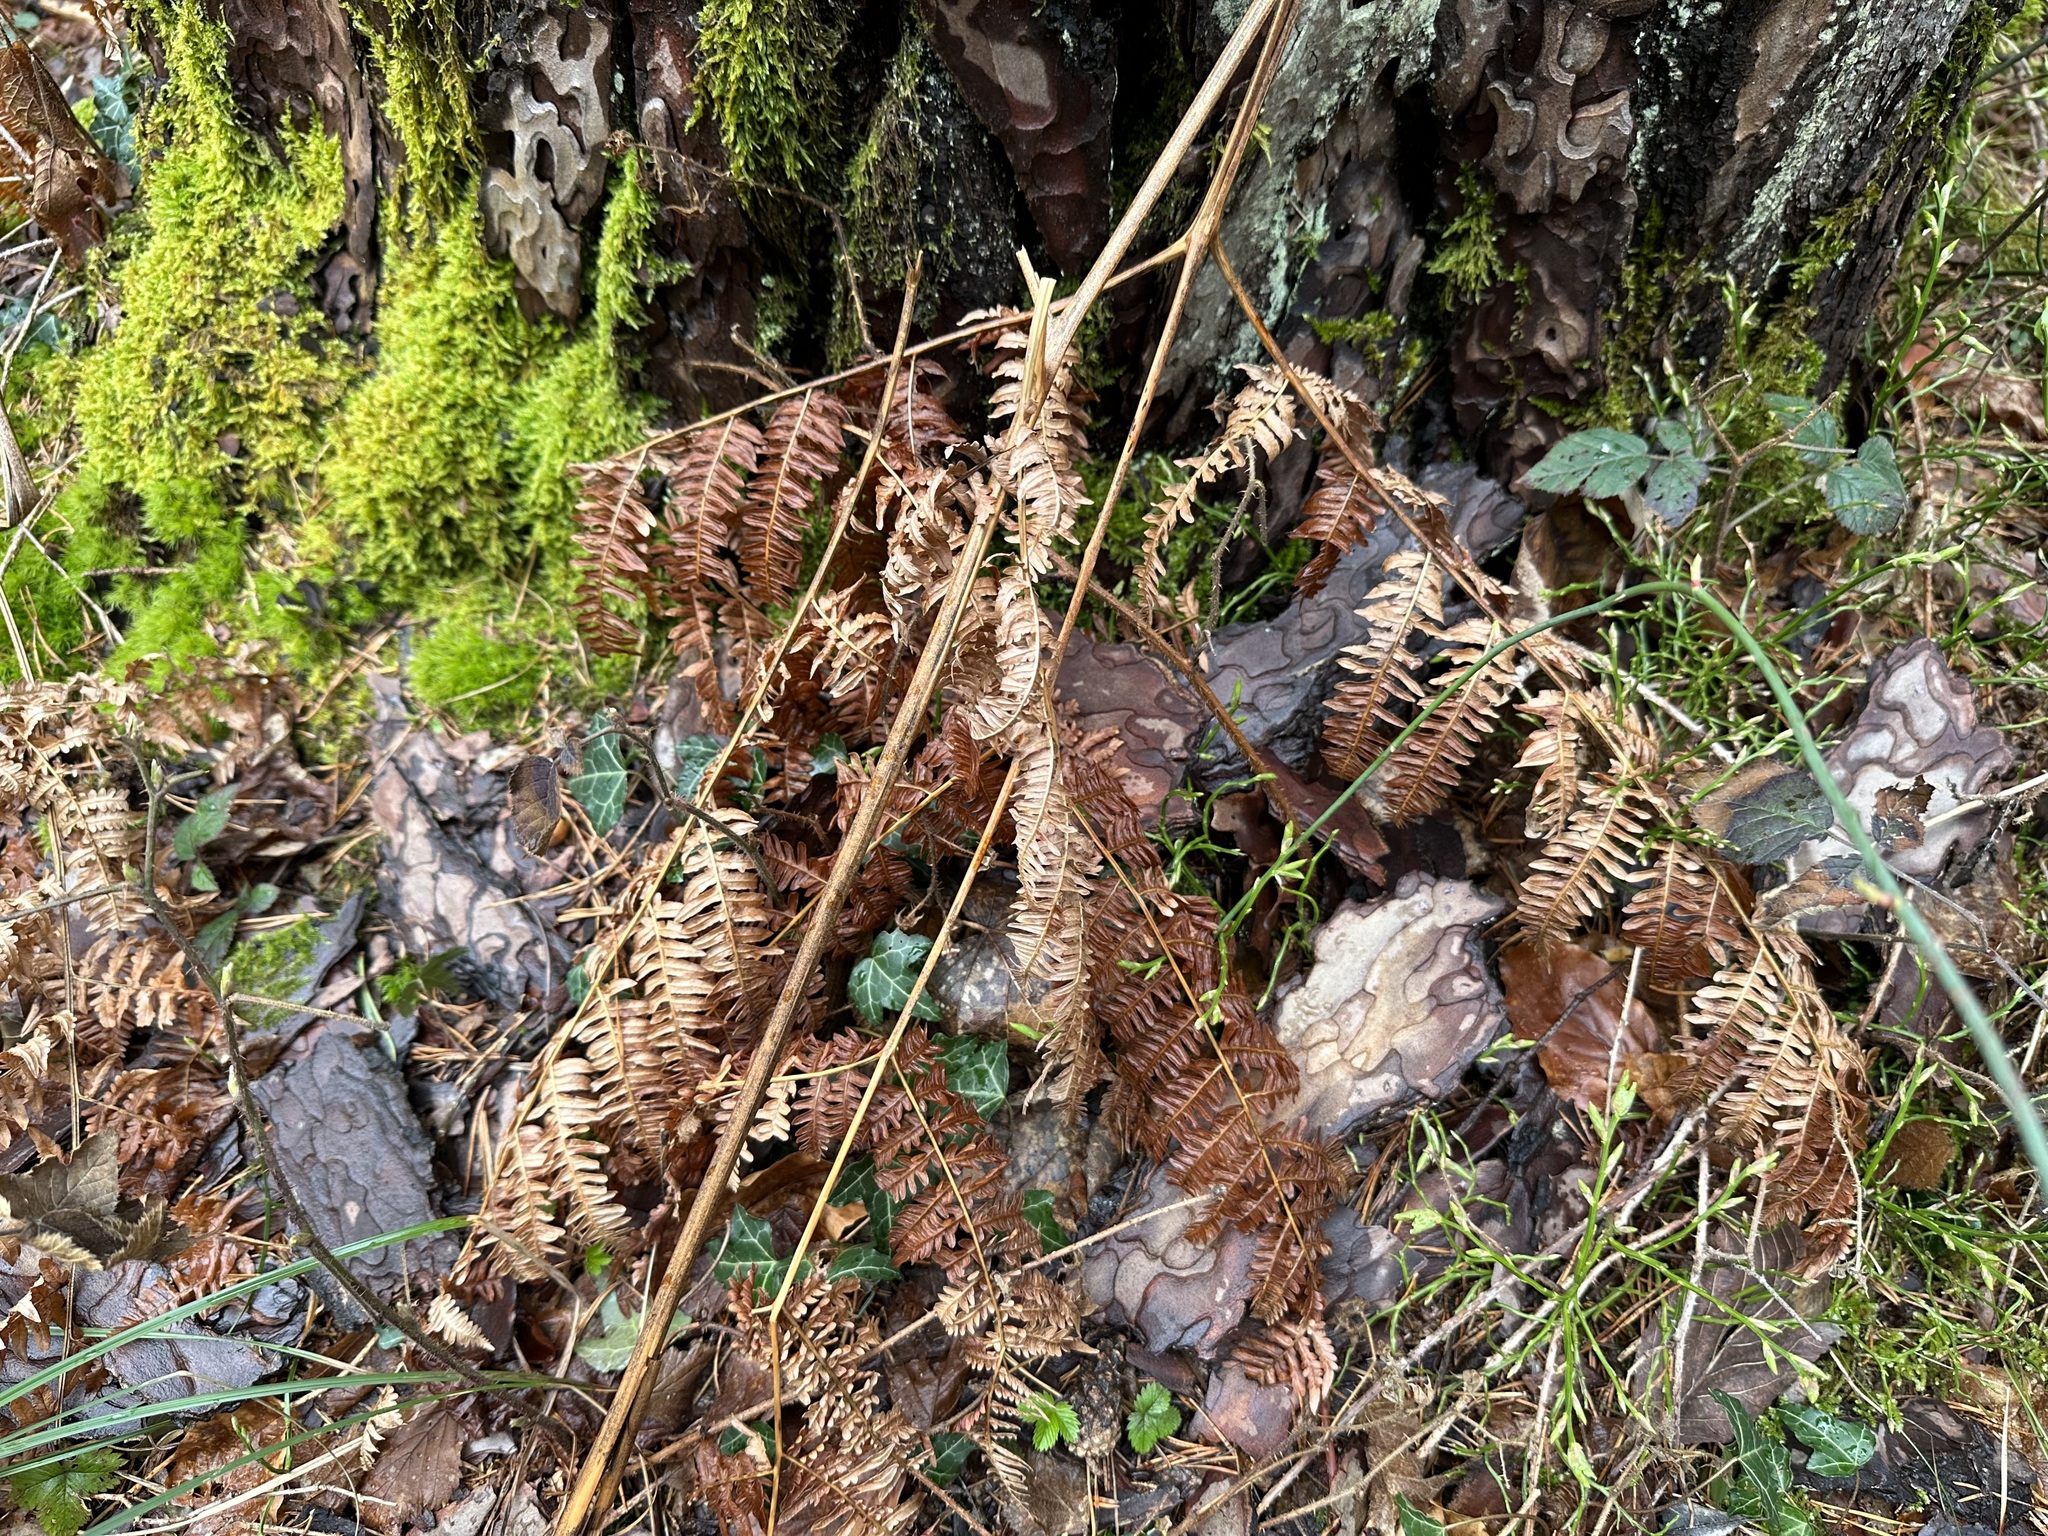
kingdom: Plantae
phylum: Tracheophyta
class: Polypodiopsida
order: Polypodiales
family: Dennstaedtiaceae
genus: Pteridium
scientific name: Pteridium aquilinum
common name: Bracken
